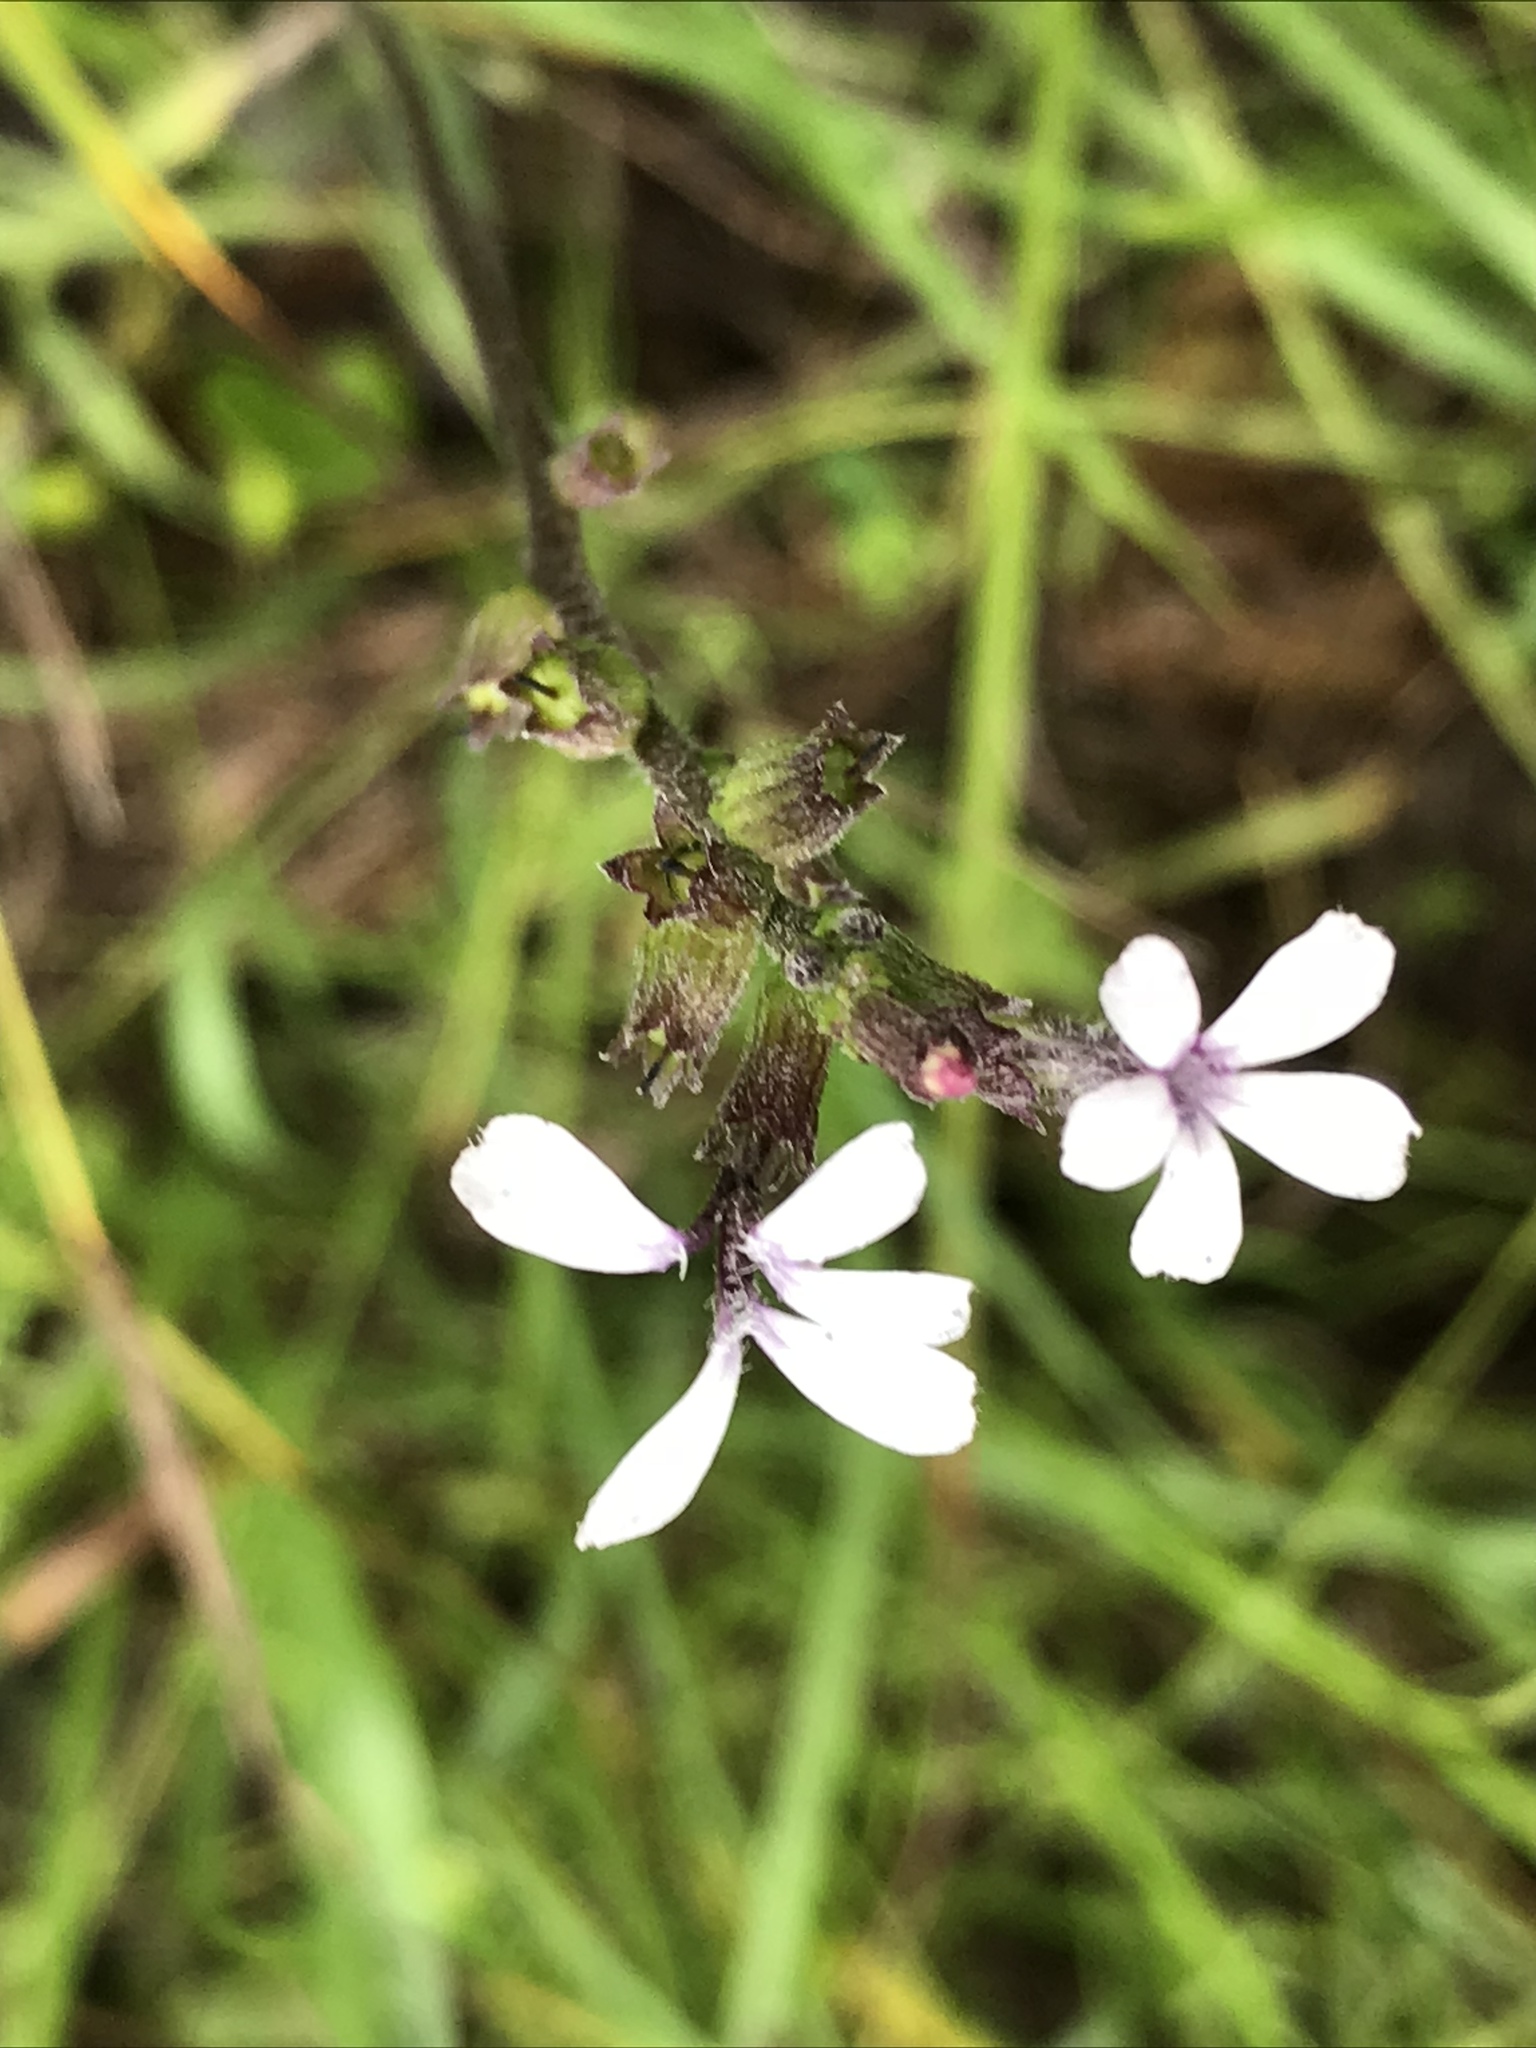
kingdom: Plantae
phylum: Tracheophyta
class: Magnoliopsida
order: Lamiales
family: Orobanchaceae
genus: Buchnera
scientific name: Buchnera floridana
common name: Florida bluehearts
